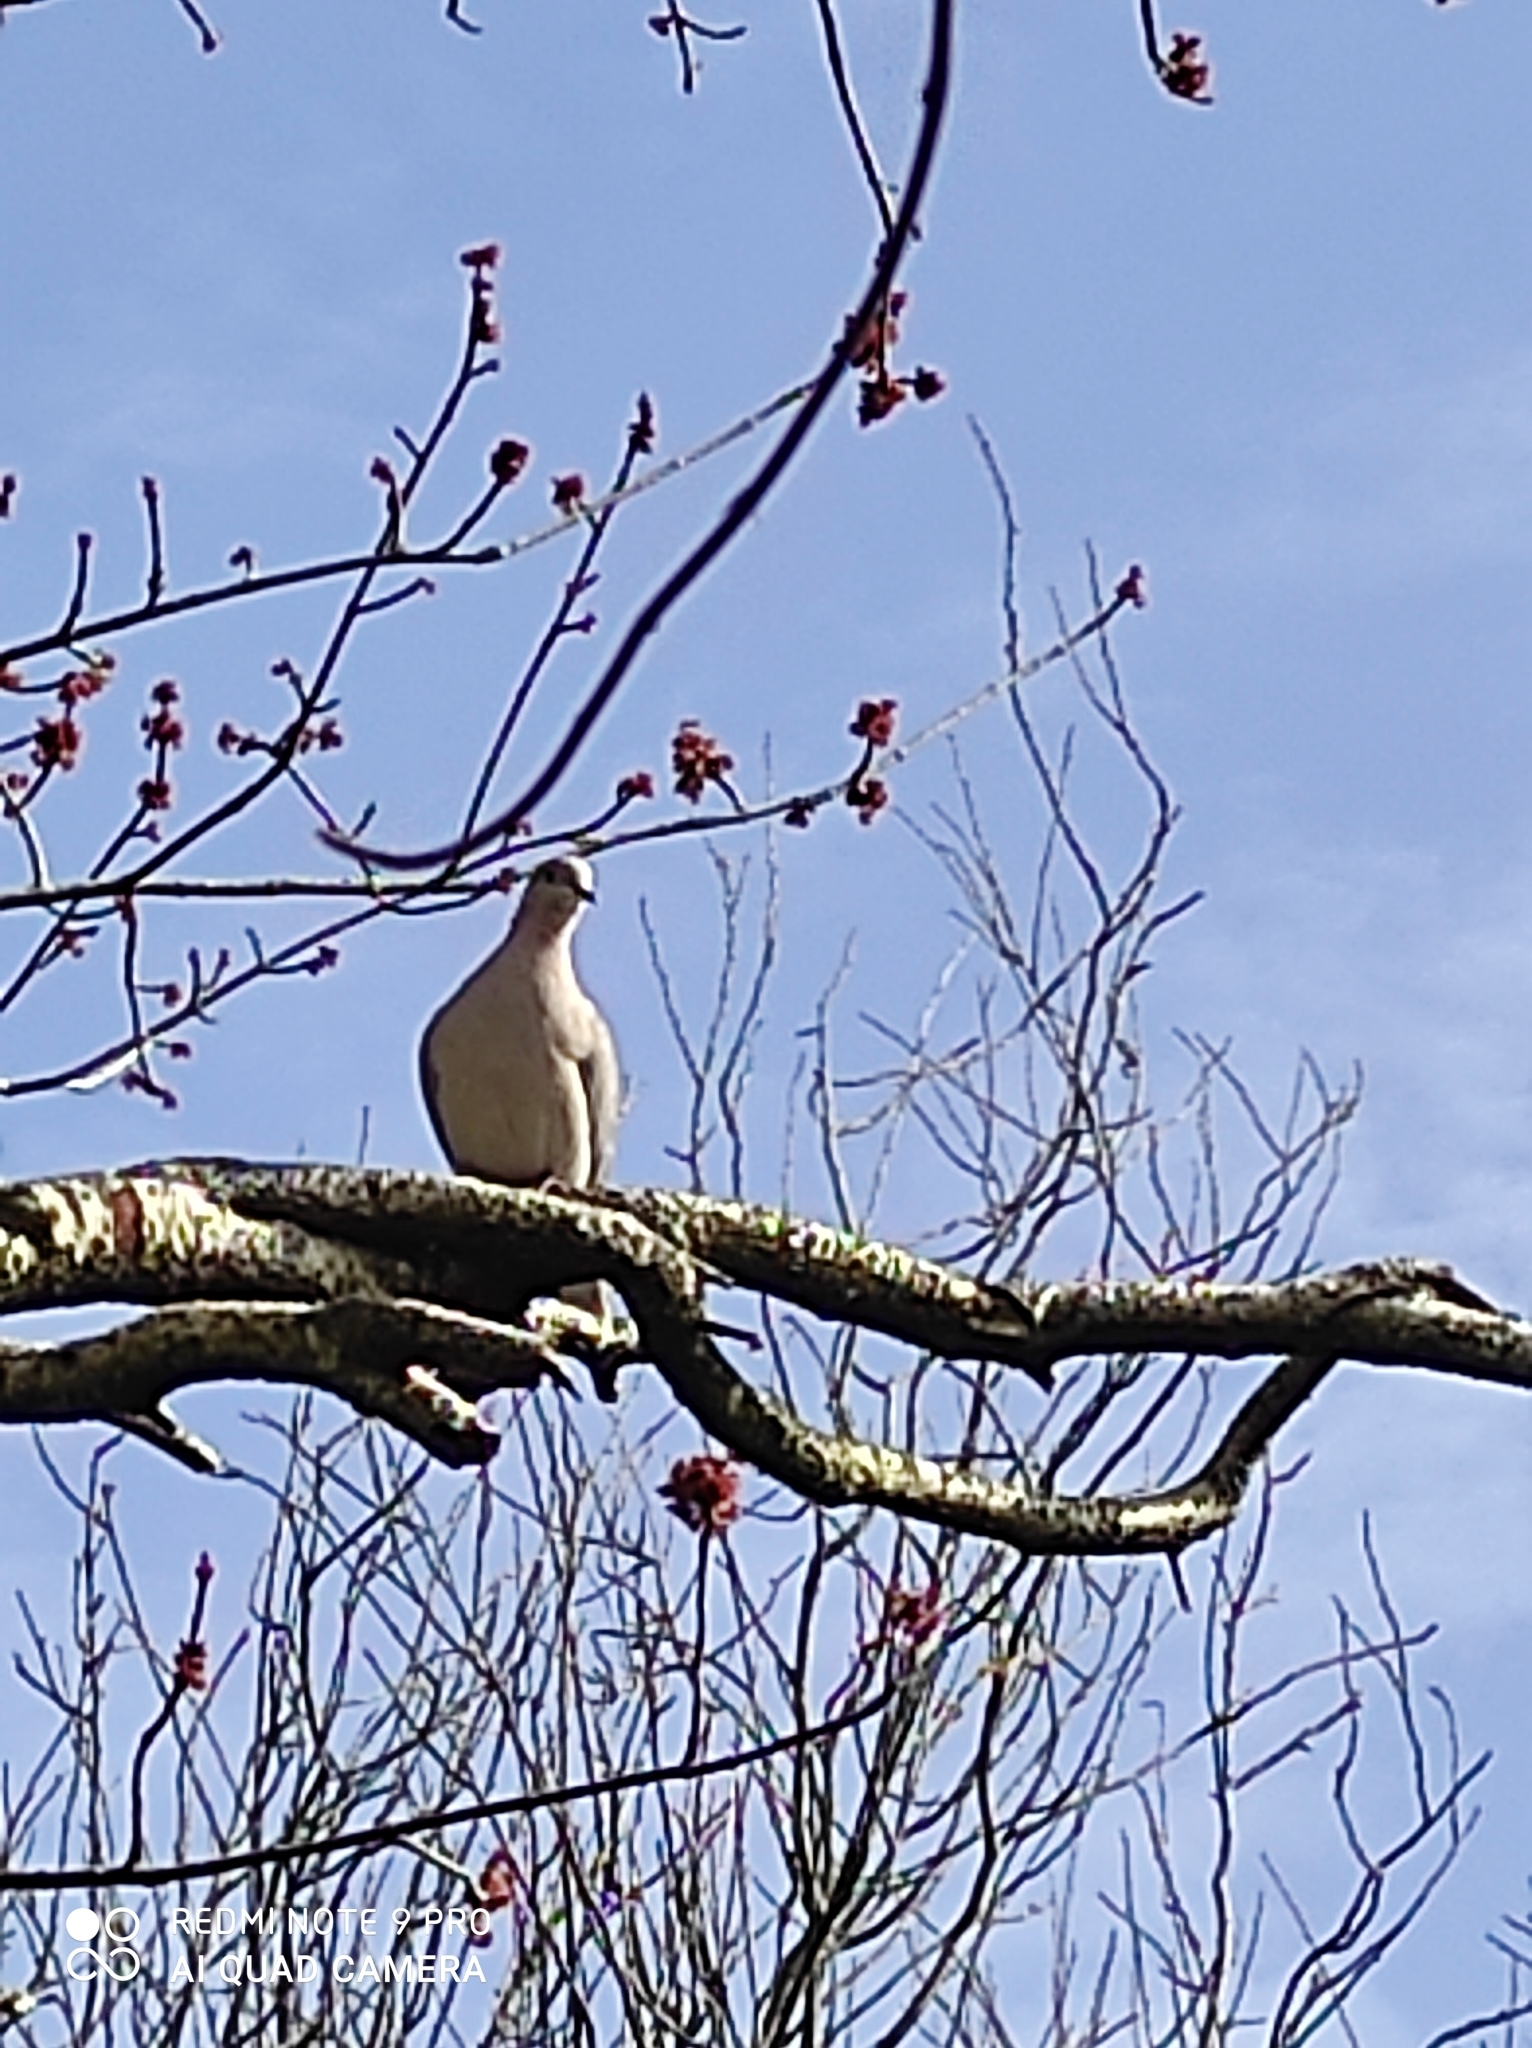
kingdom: Animalia
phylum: Chordata
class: Aves
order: Columbiformes
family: Columbidae
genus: Streptopelia
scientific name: Streptopelia decaocto
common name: Eurasian collared dove
